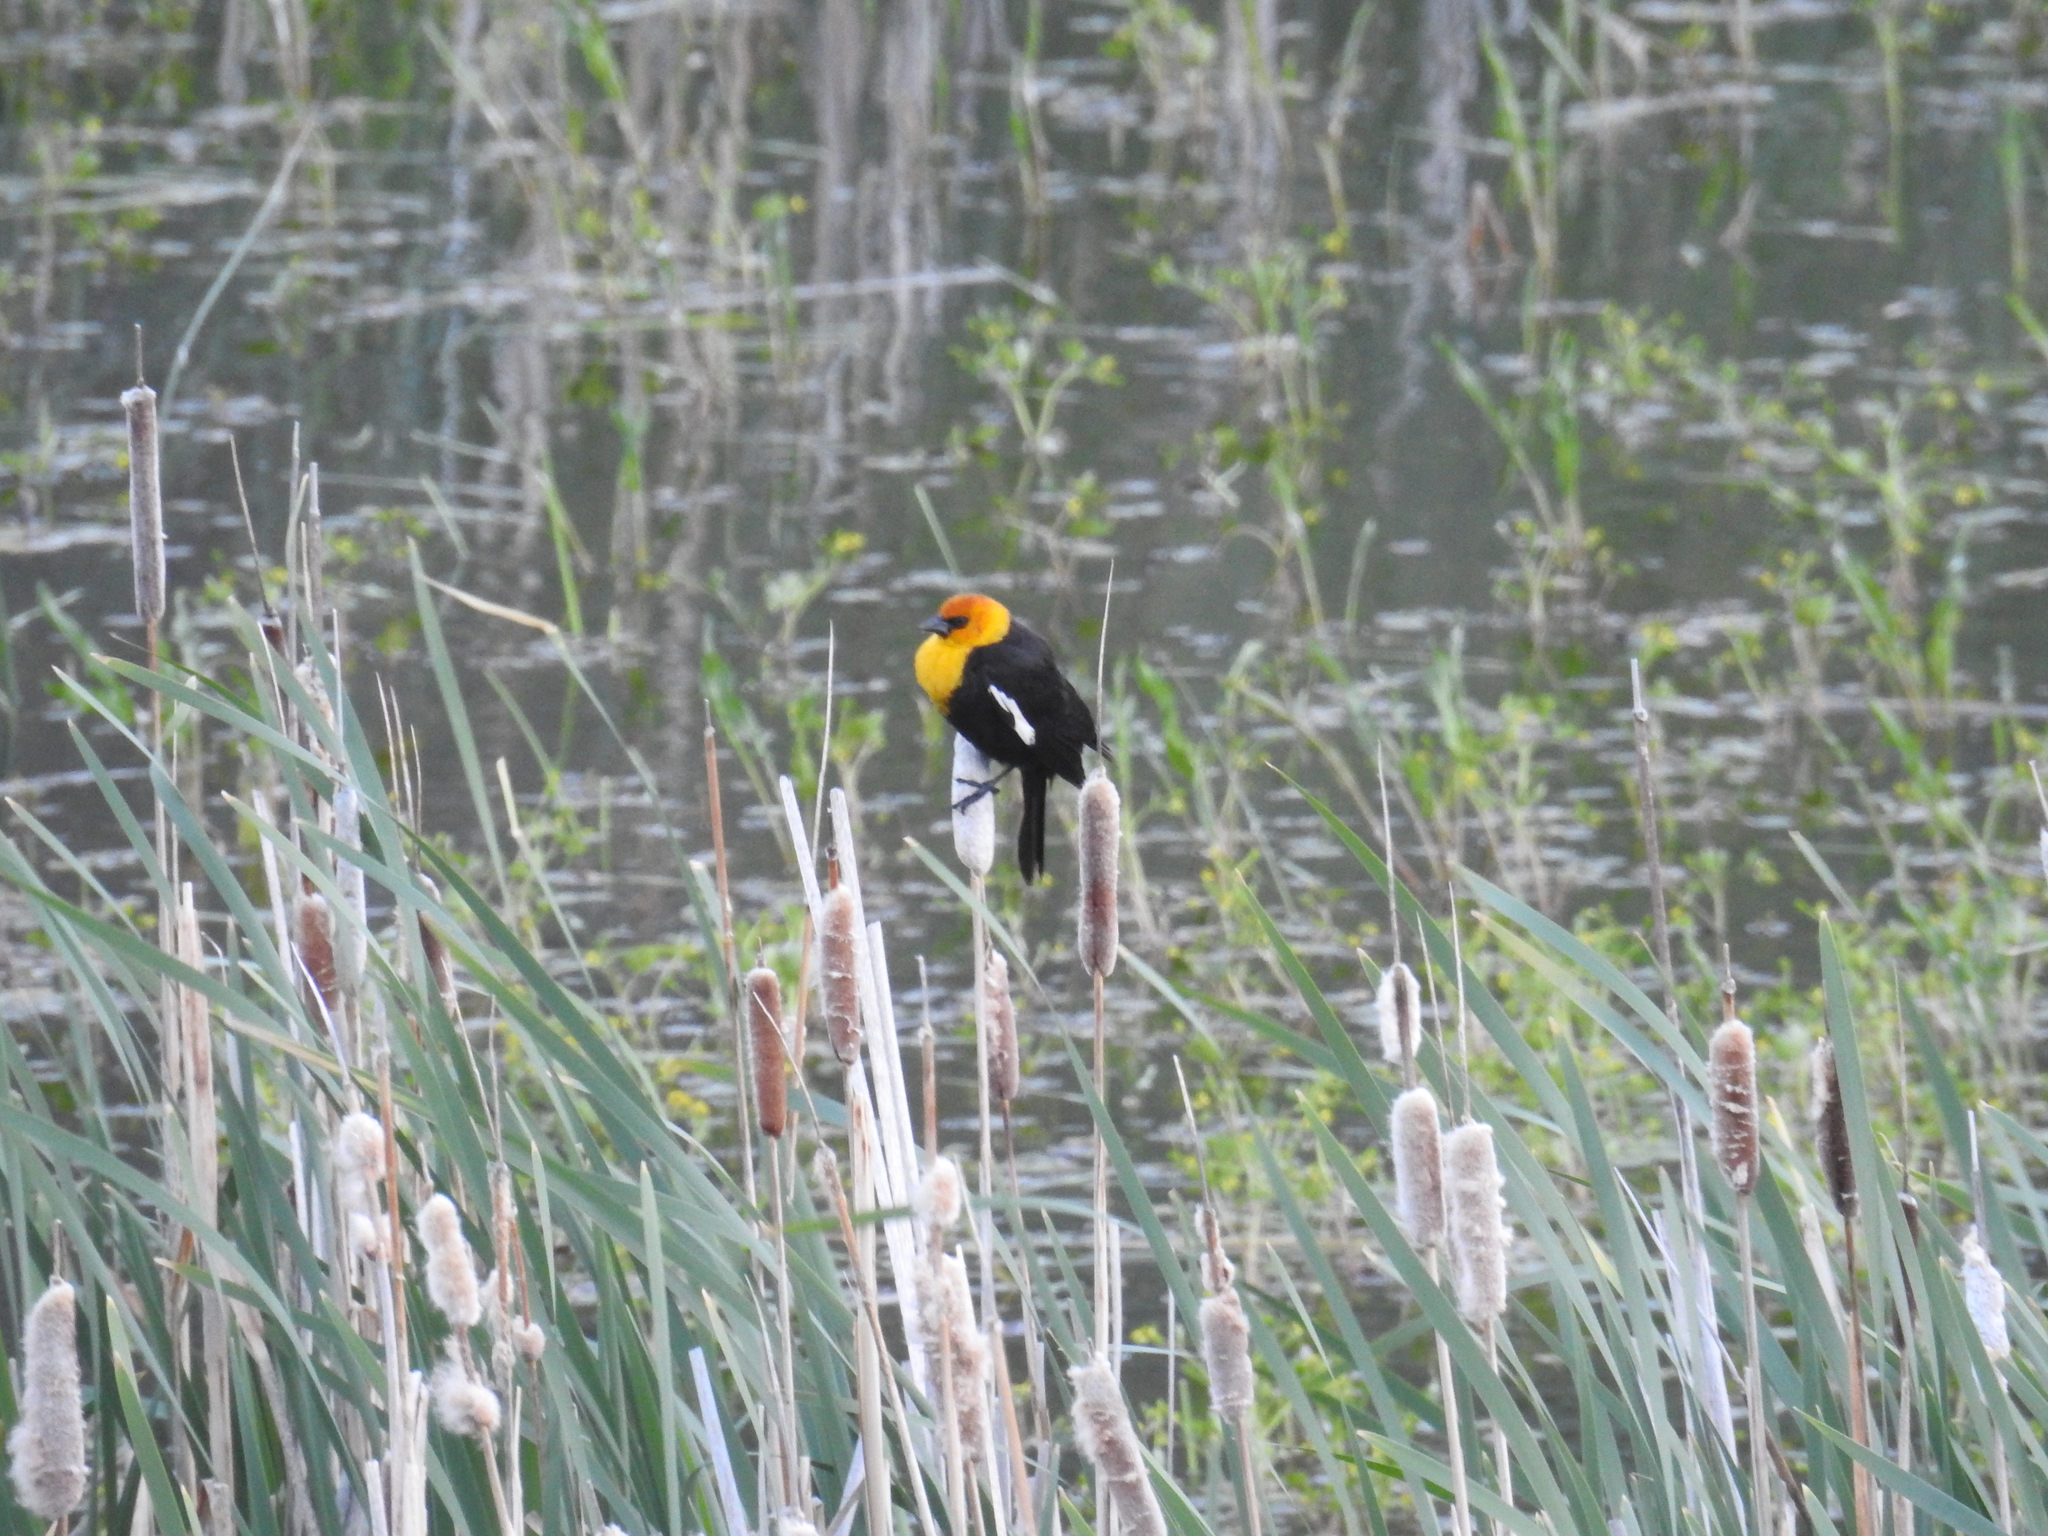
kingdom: Animalia
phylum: Chordata
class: Aves
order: Passeriformes
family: Icteridae
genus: Xanthocephalus
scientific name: Xanthocephalus xanthocephalus
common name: Yellow-headed blackbird
